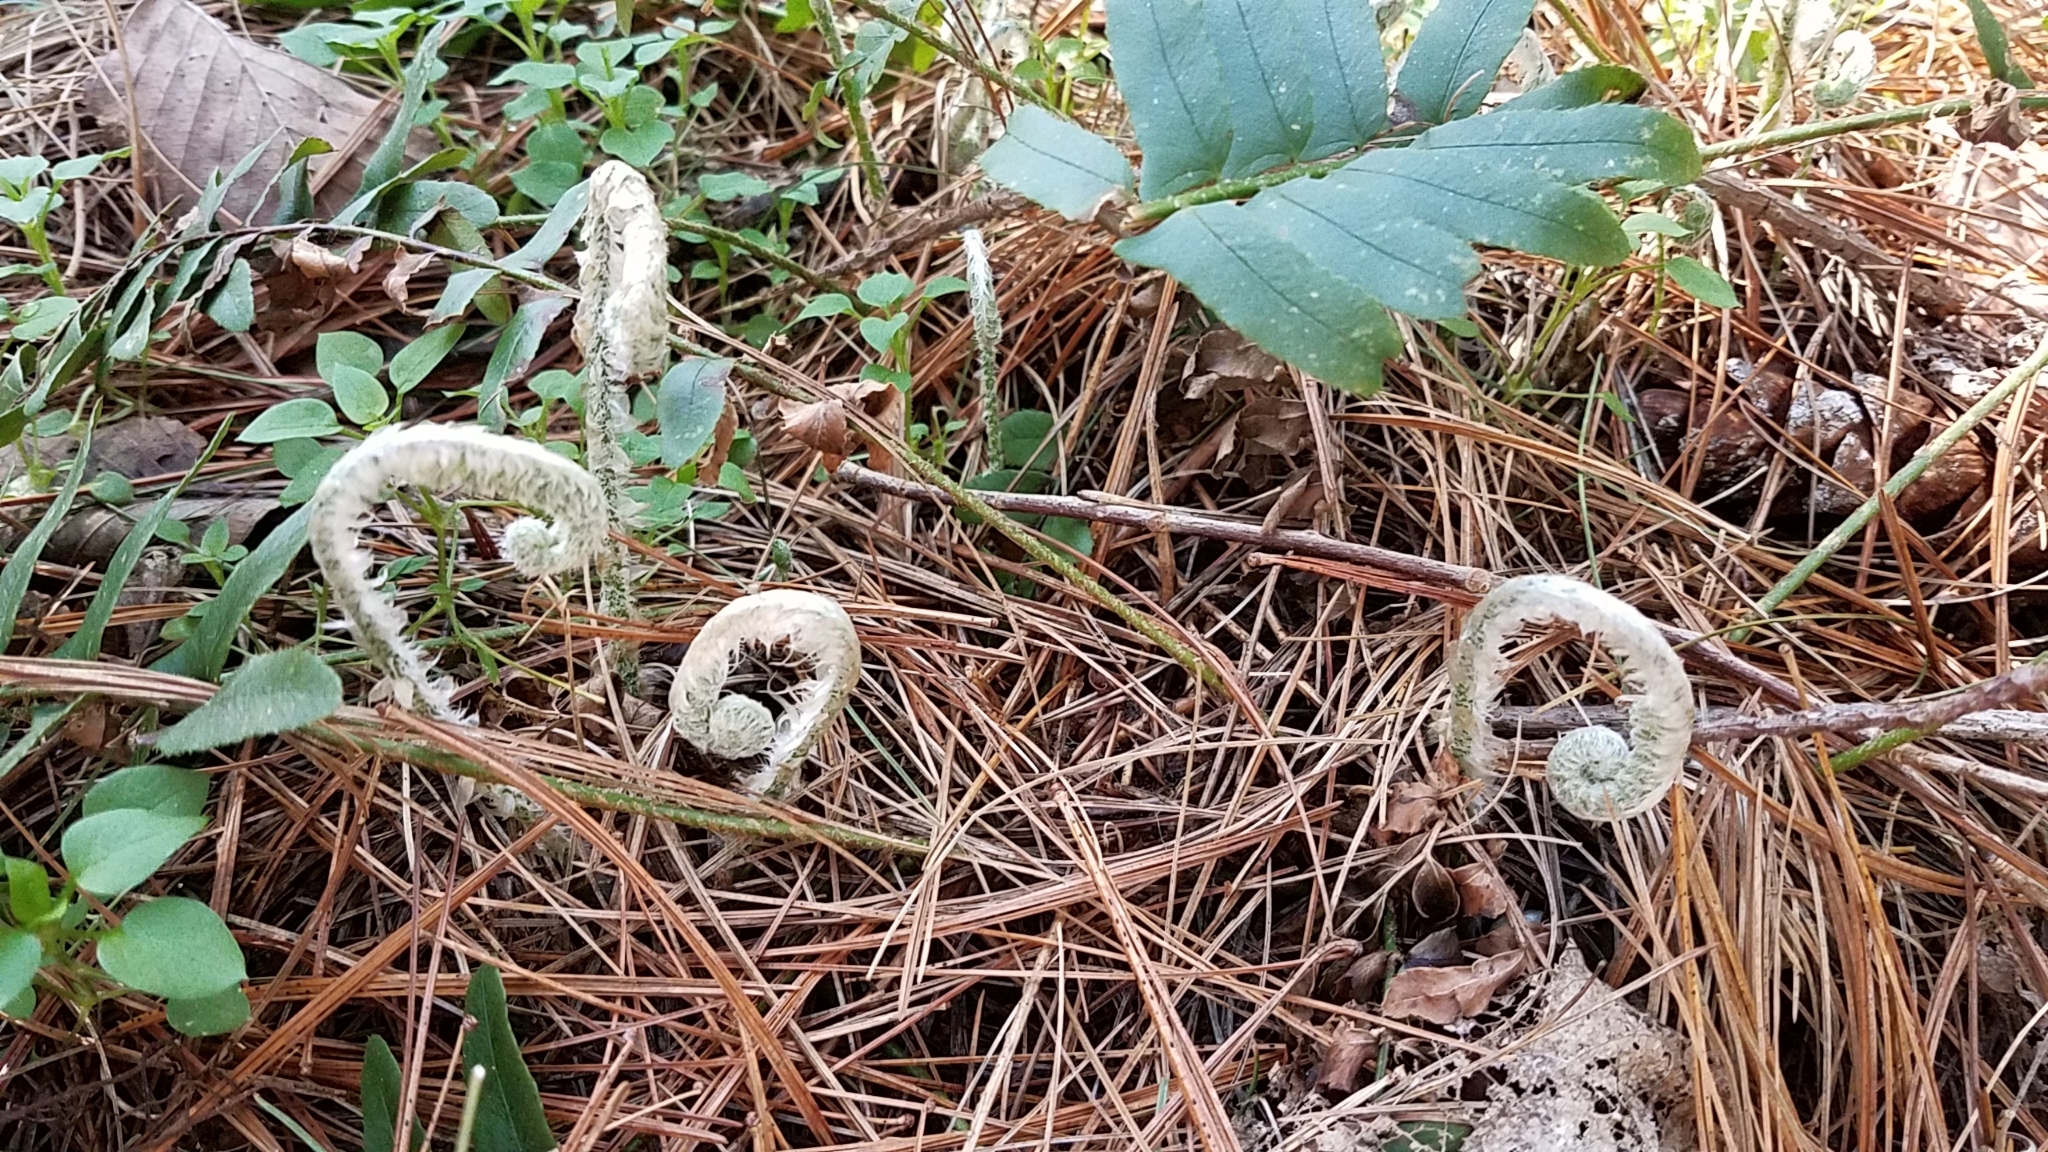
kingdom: Plantae
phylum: Tracheophyta
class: Polypodiopsida
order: Polypodiales
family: Dryopteridaceae
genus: Polystichum
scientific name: Polystichum acrostichoides
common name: Christmas fern
